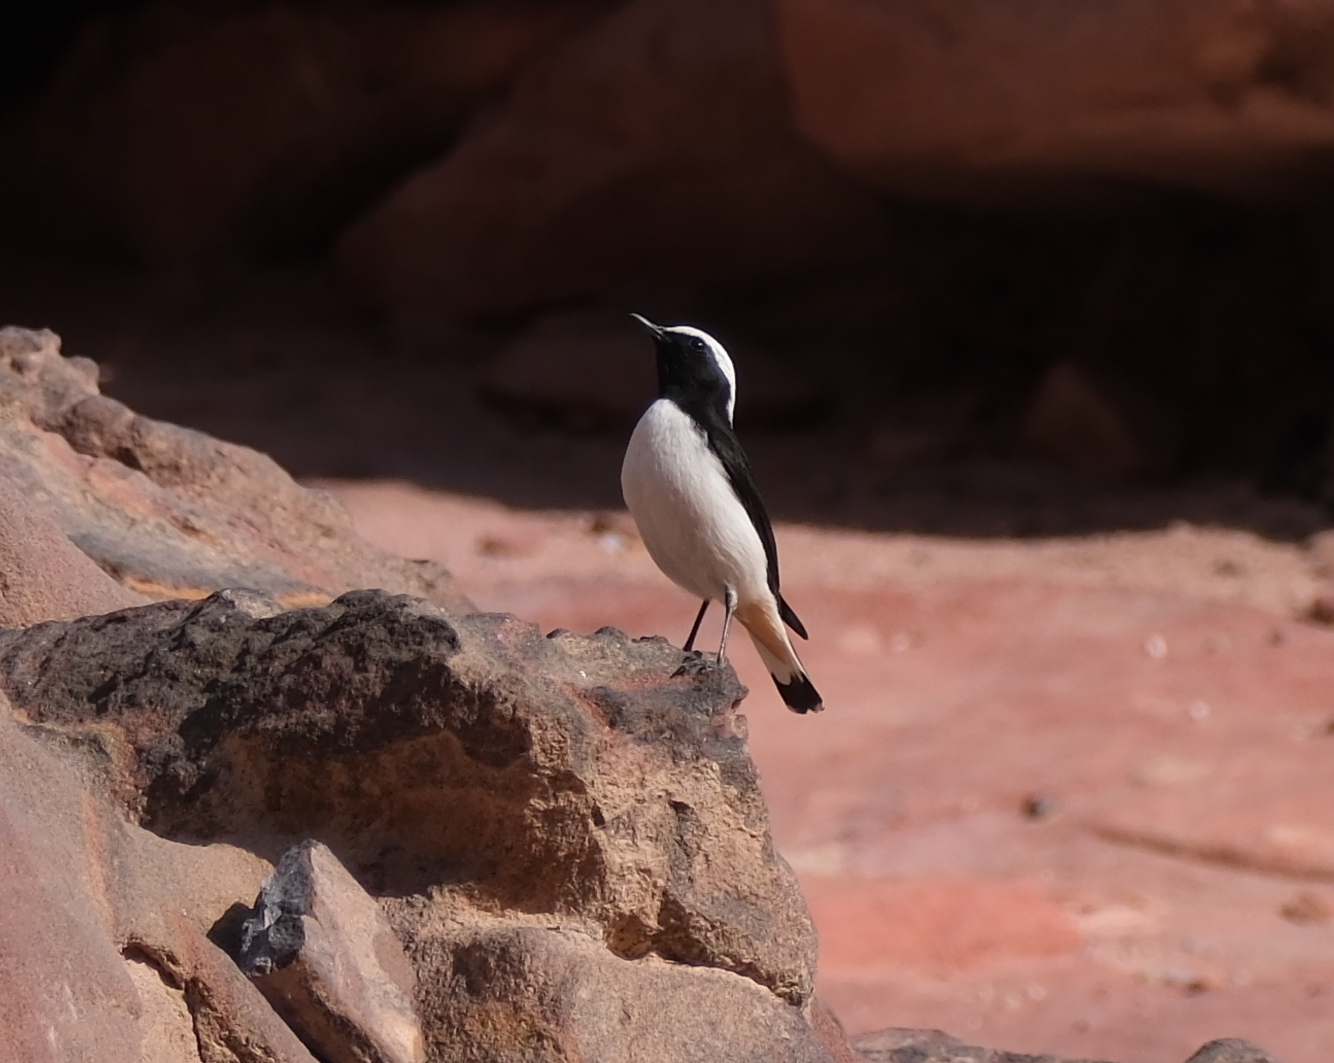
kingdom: Animalia
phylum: Chordata
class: Aves
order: Passeriformes
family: Muscicapidae
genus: Oenanthe
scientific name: Oenanthe lugens
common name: Mourning wheatear
